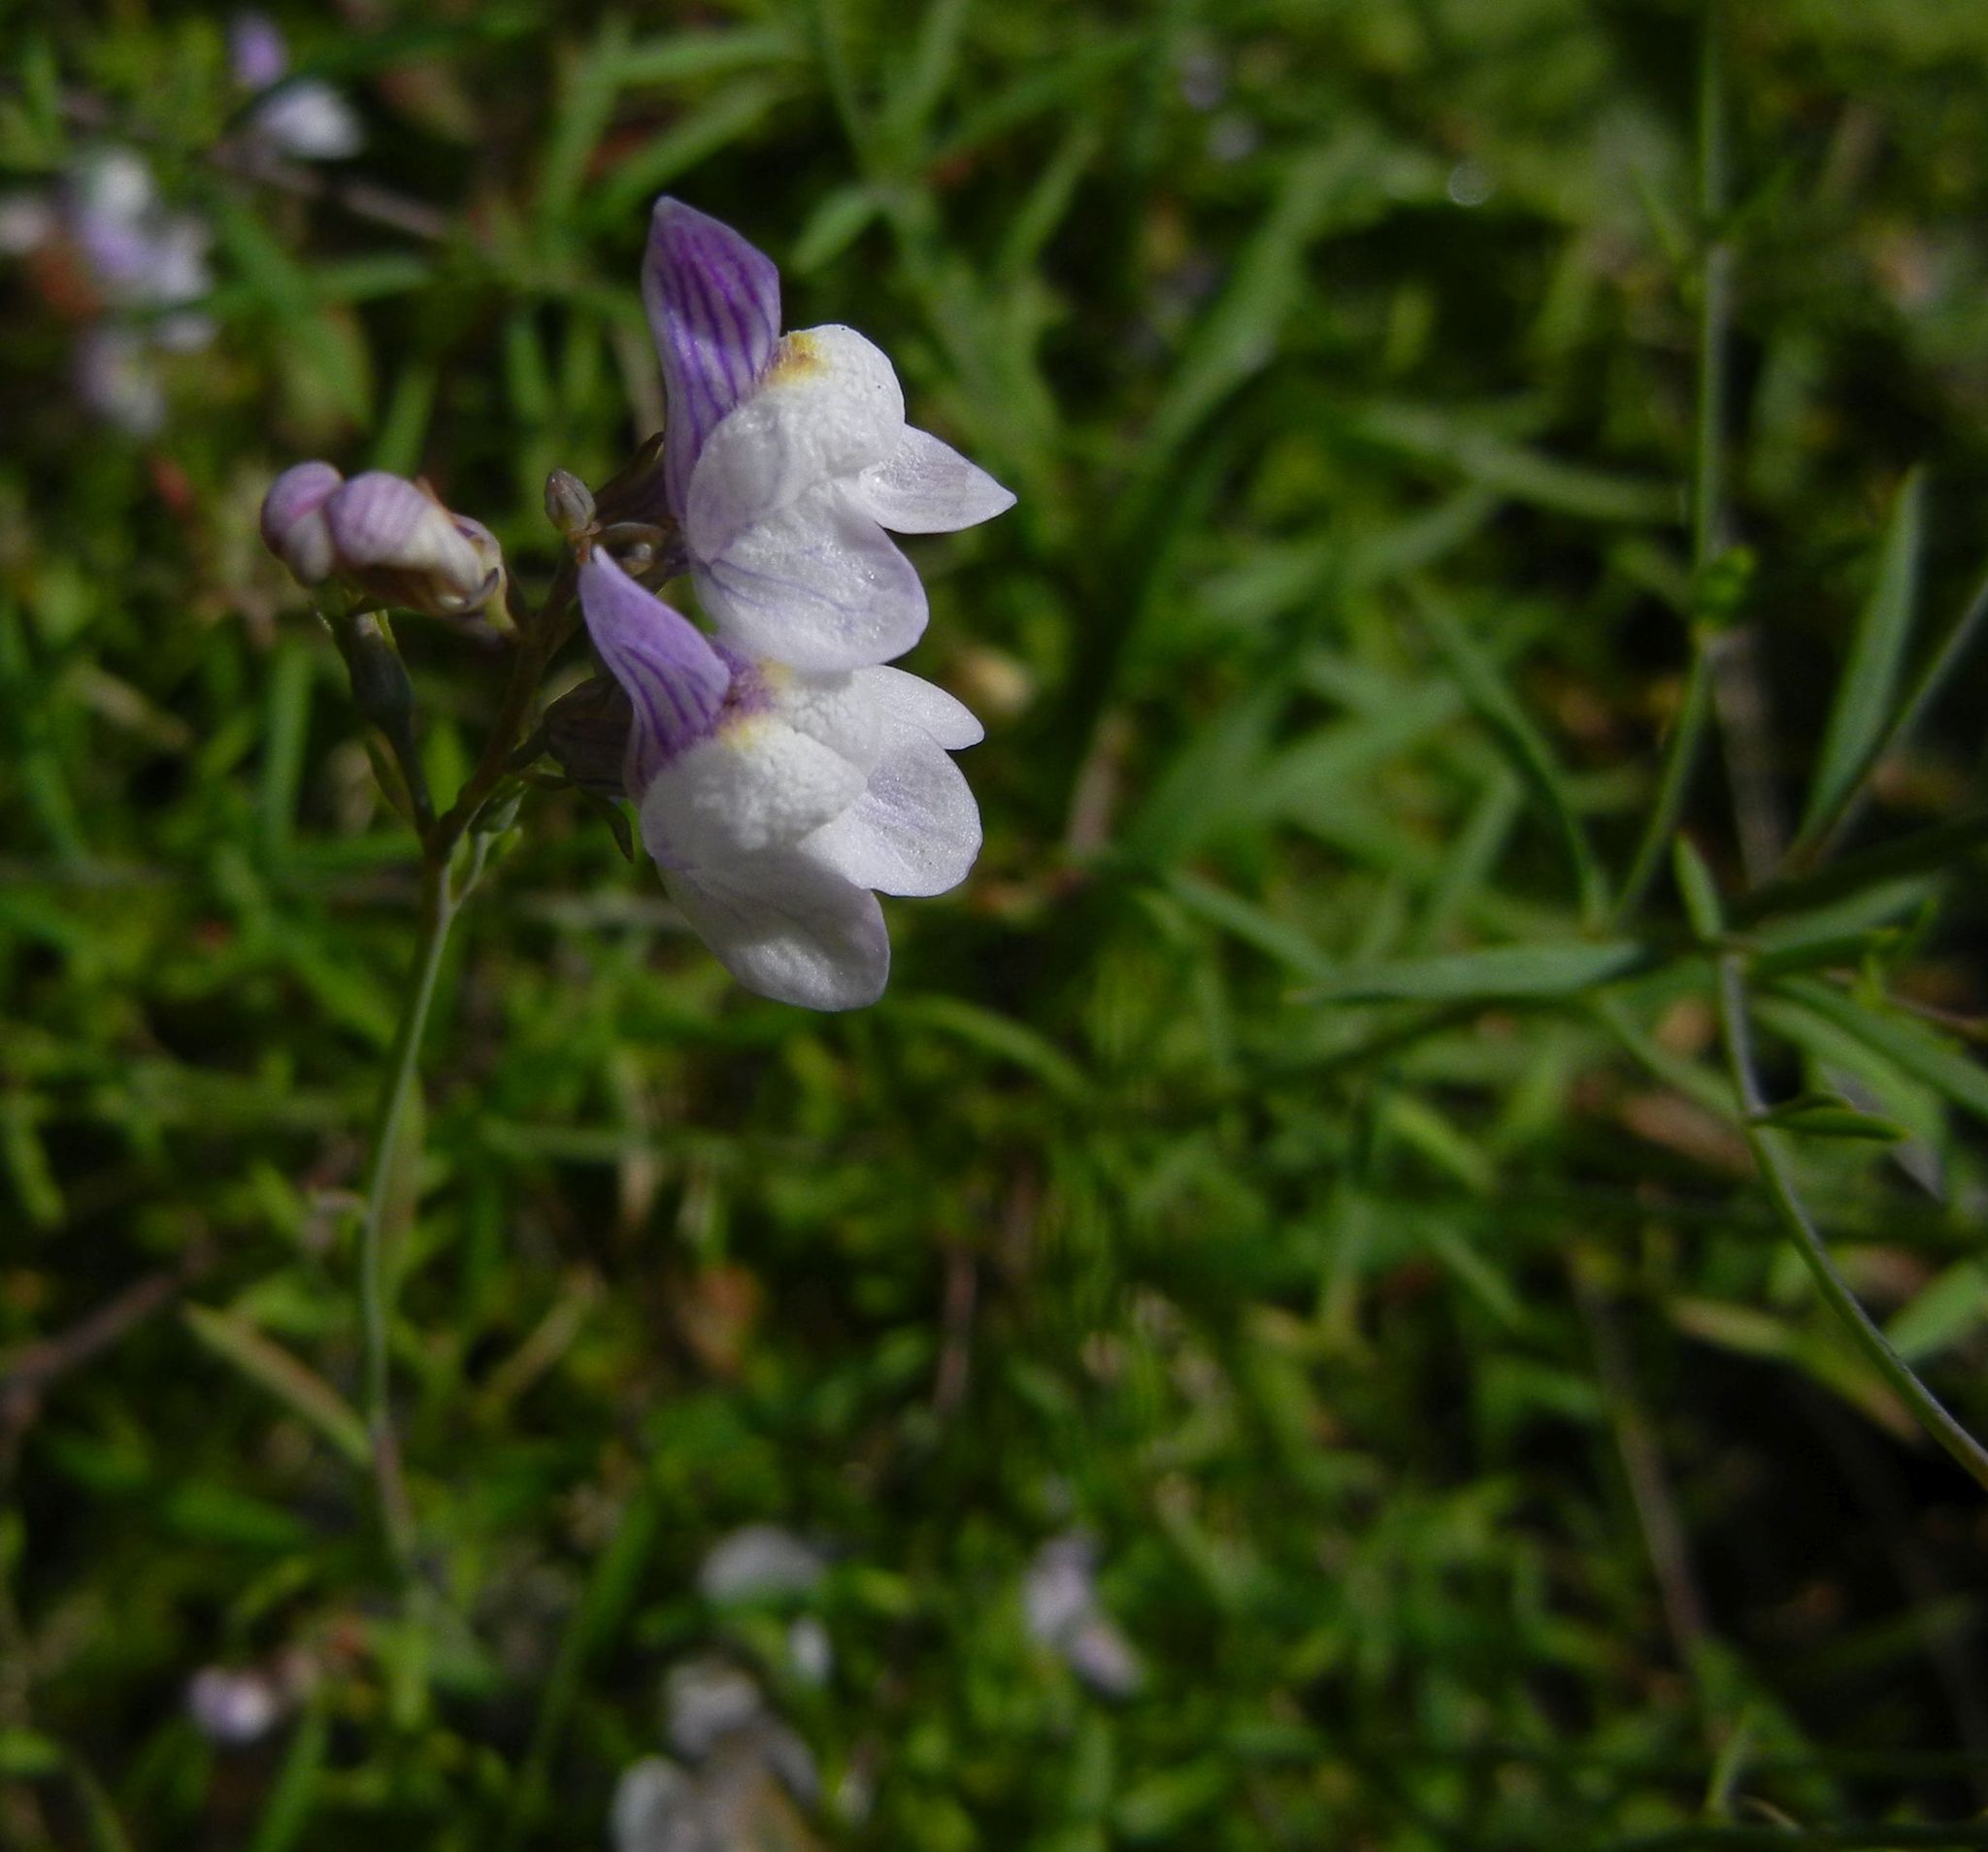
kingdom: Plantae
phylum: Tracheophyta
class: Magnoliopsida
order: Lamiales
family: Plantaginaceae
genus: Linaria
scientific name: Linaria repens
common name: Pale toadflax
